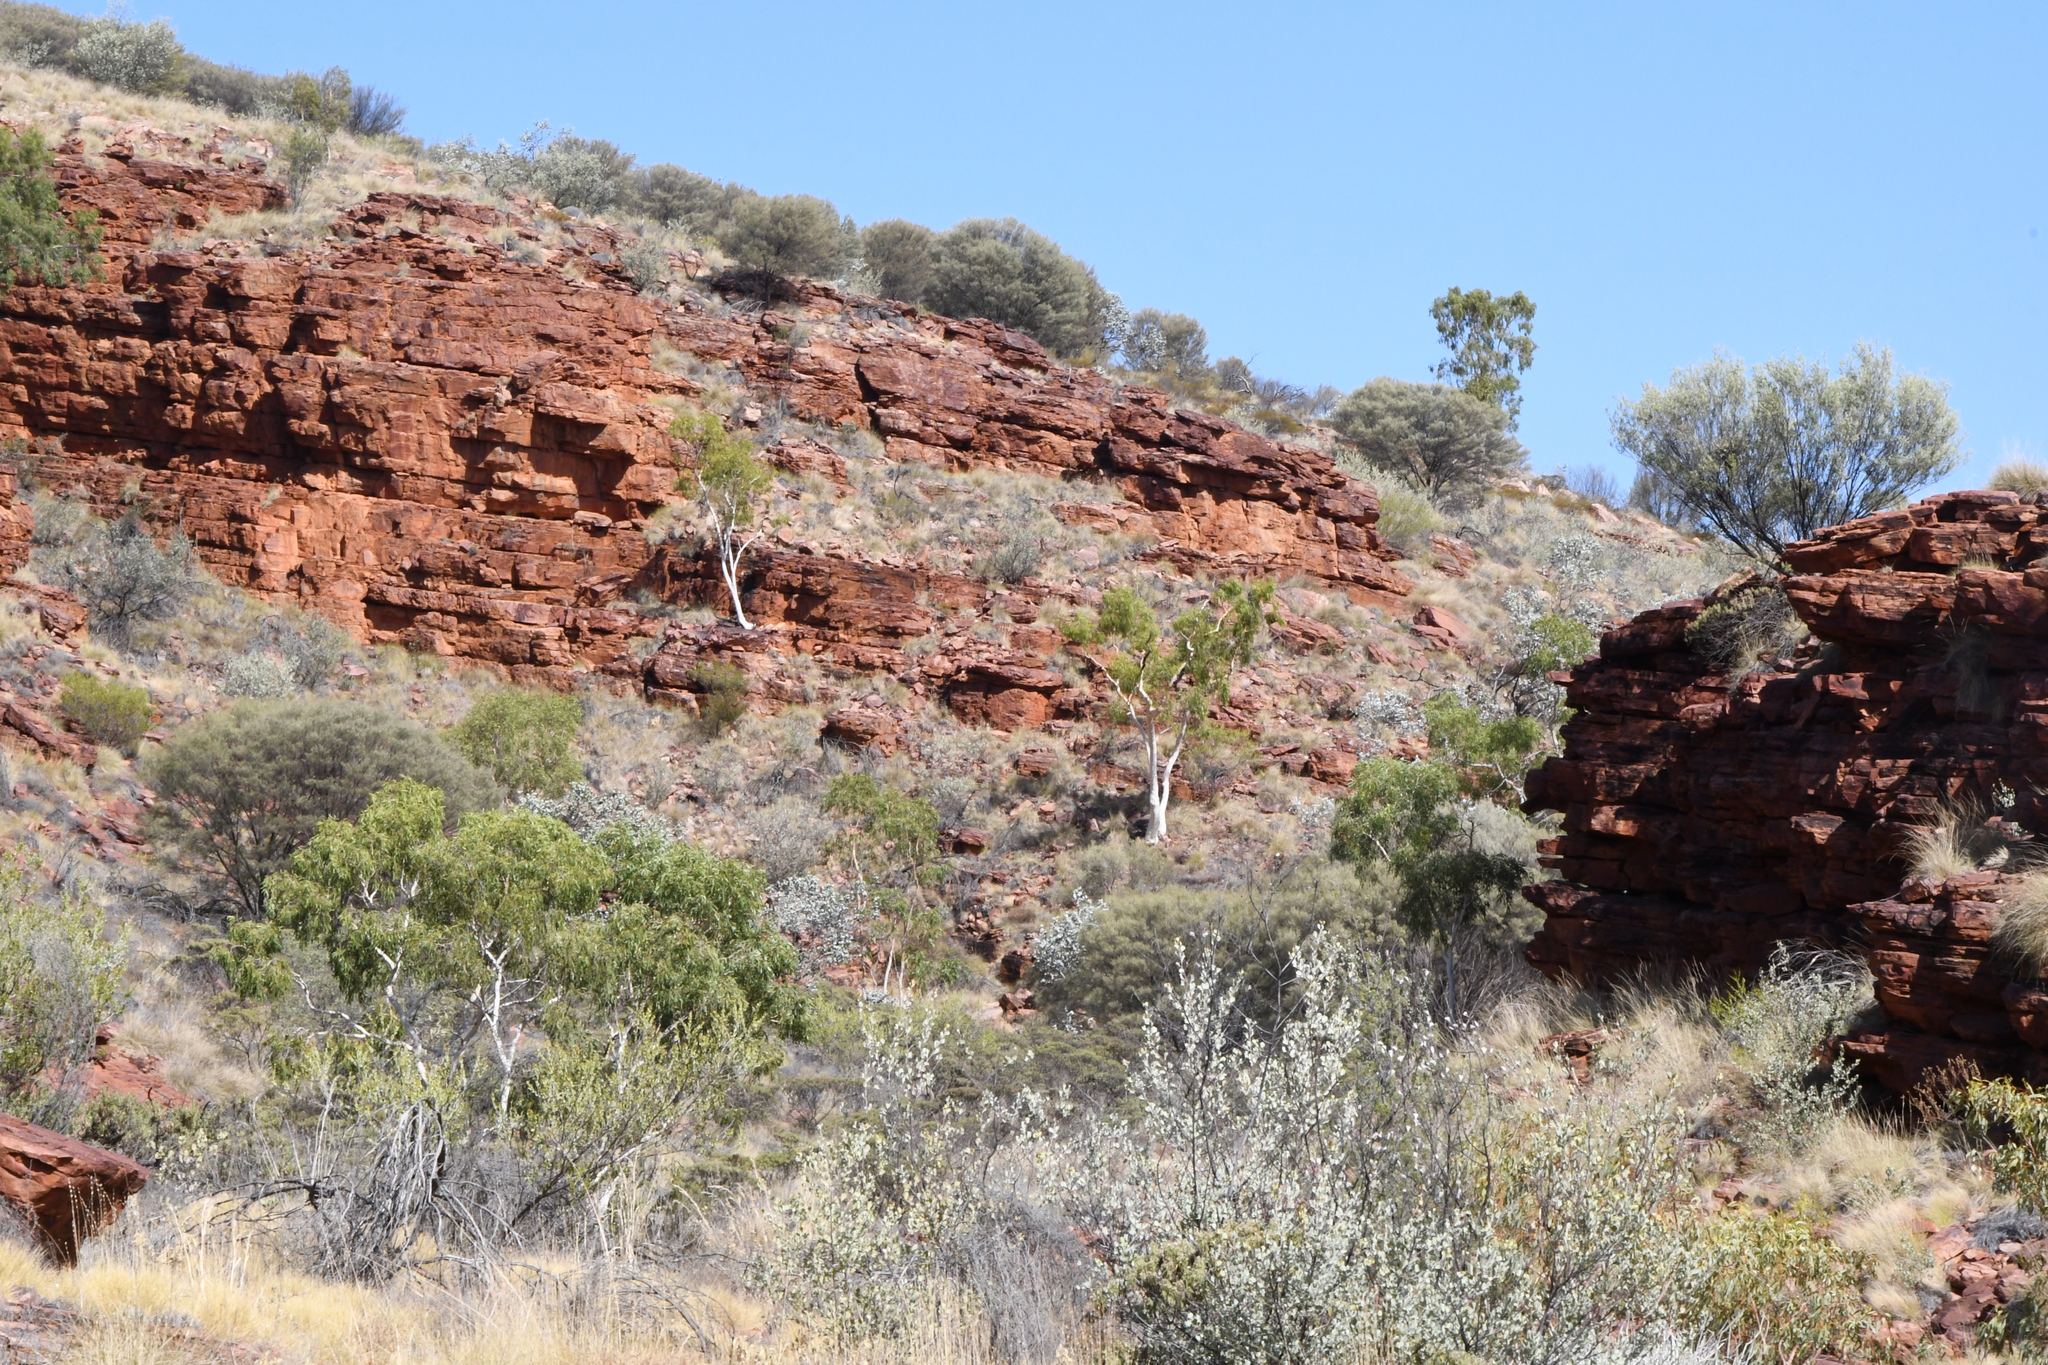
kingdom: Plantae
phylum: Tracheophyta
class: Magnoliopsida
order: Myrtales
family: Myrtaceae
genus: Corymbia
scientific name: Corymbia aparrerinja
